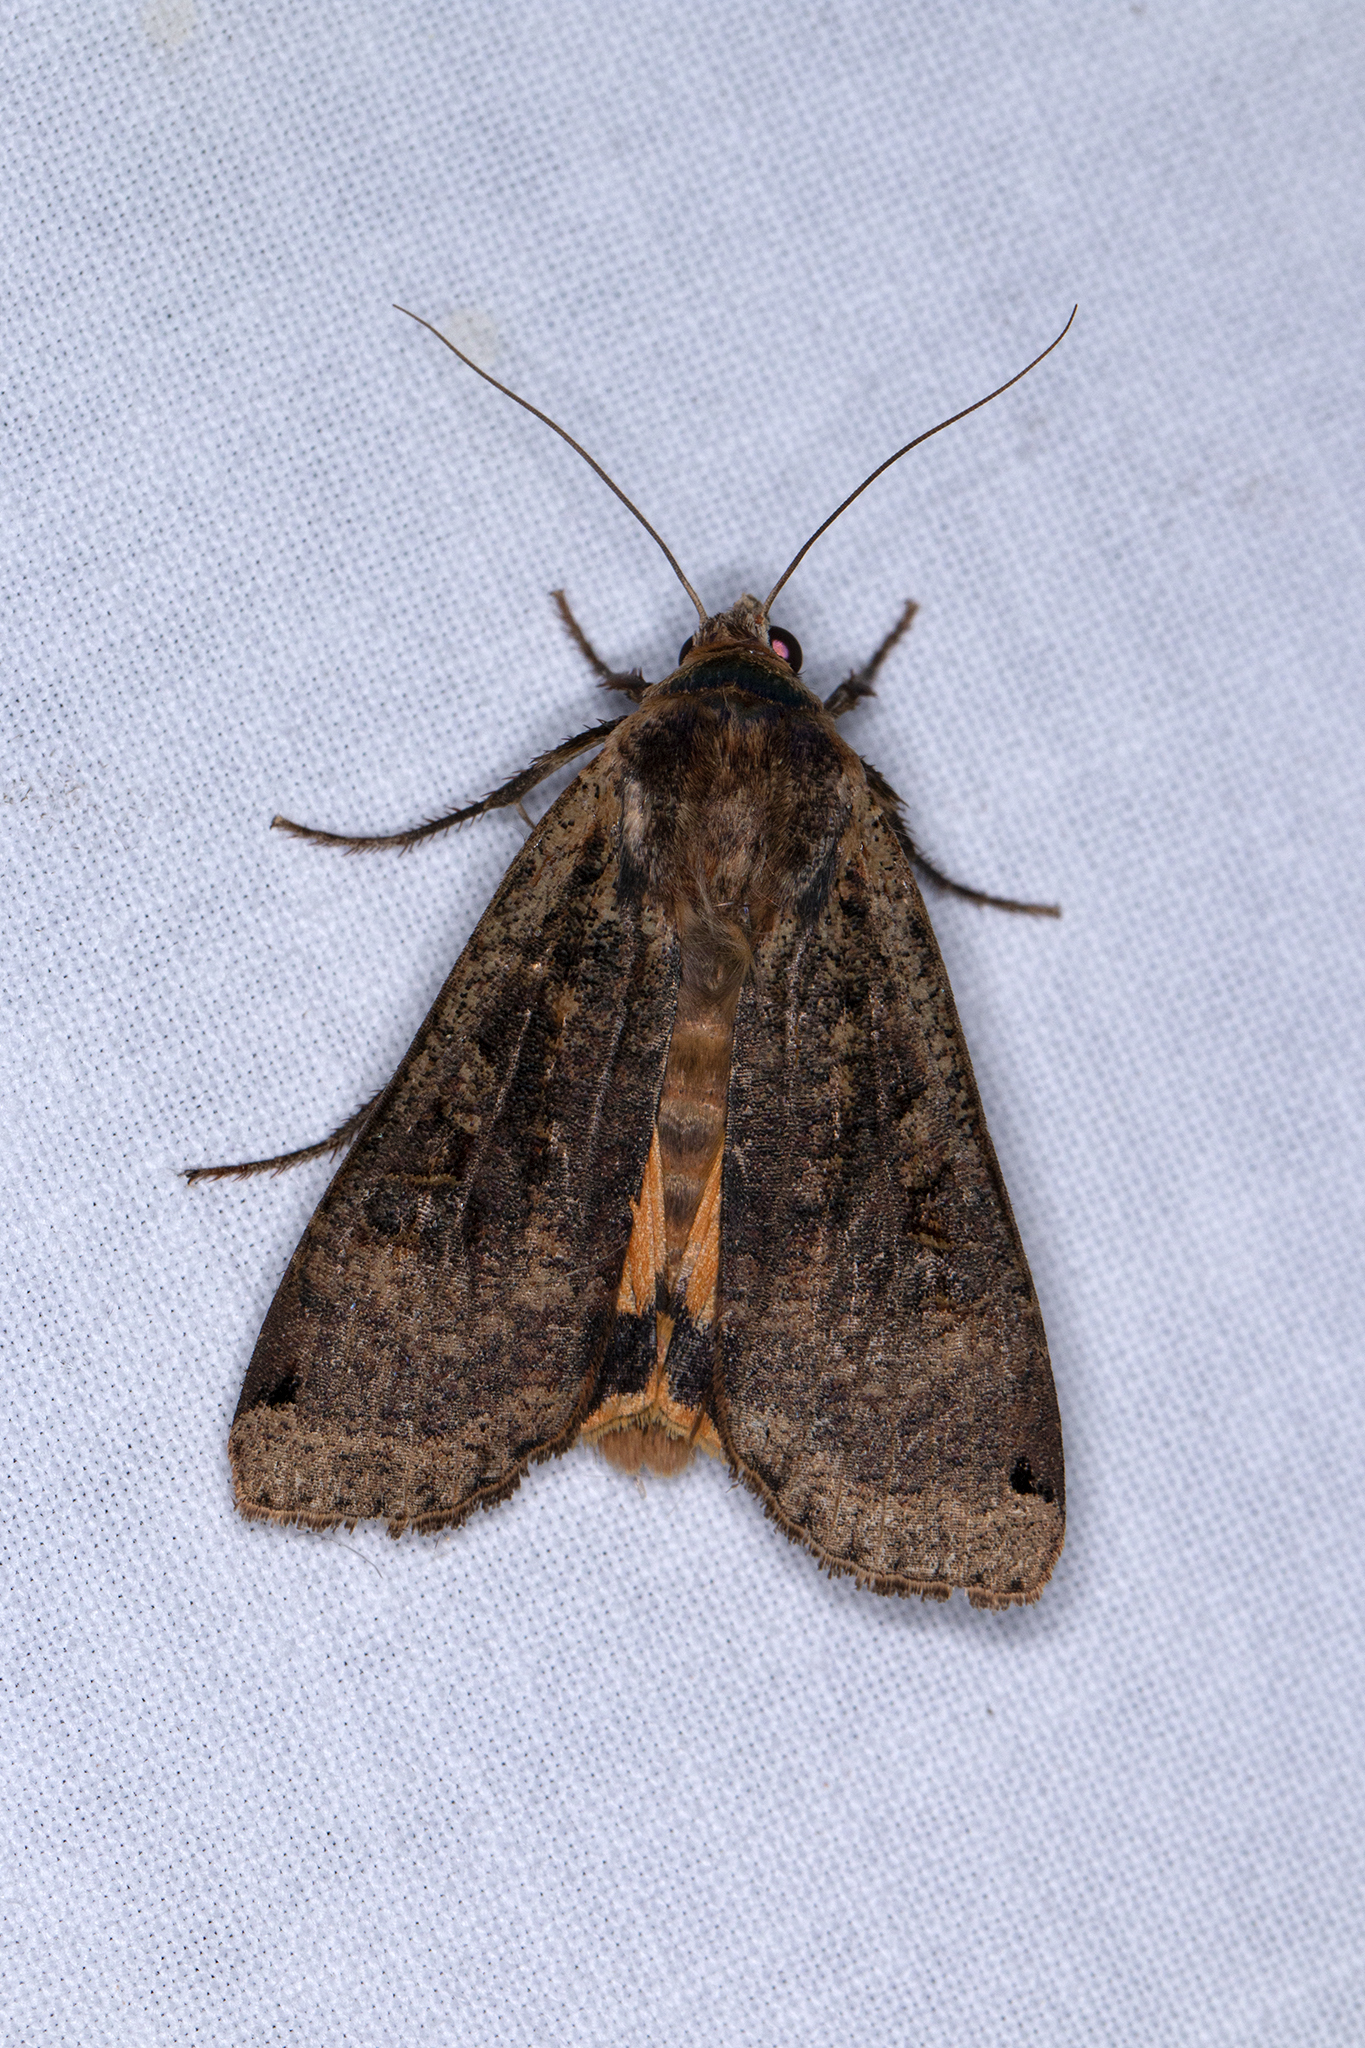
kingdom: Animalia
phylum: Arthropoda
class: Insecta
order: Lepidoptera
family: Noctuidae
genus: Noctua
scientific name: Noctua pronuba
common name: Large yellow underwing
